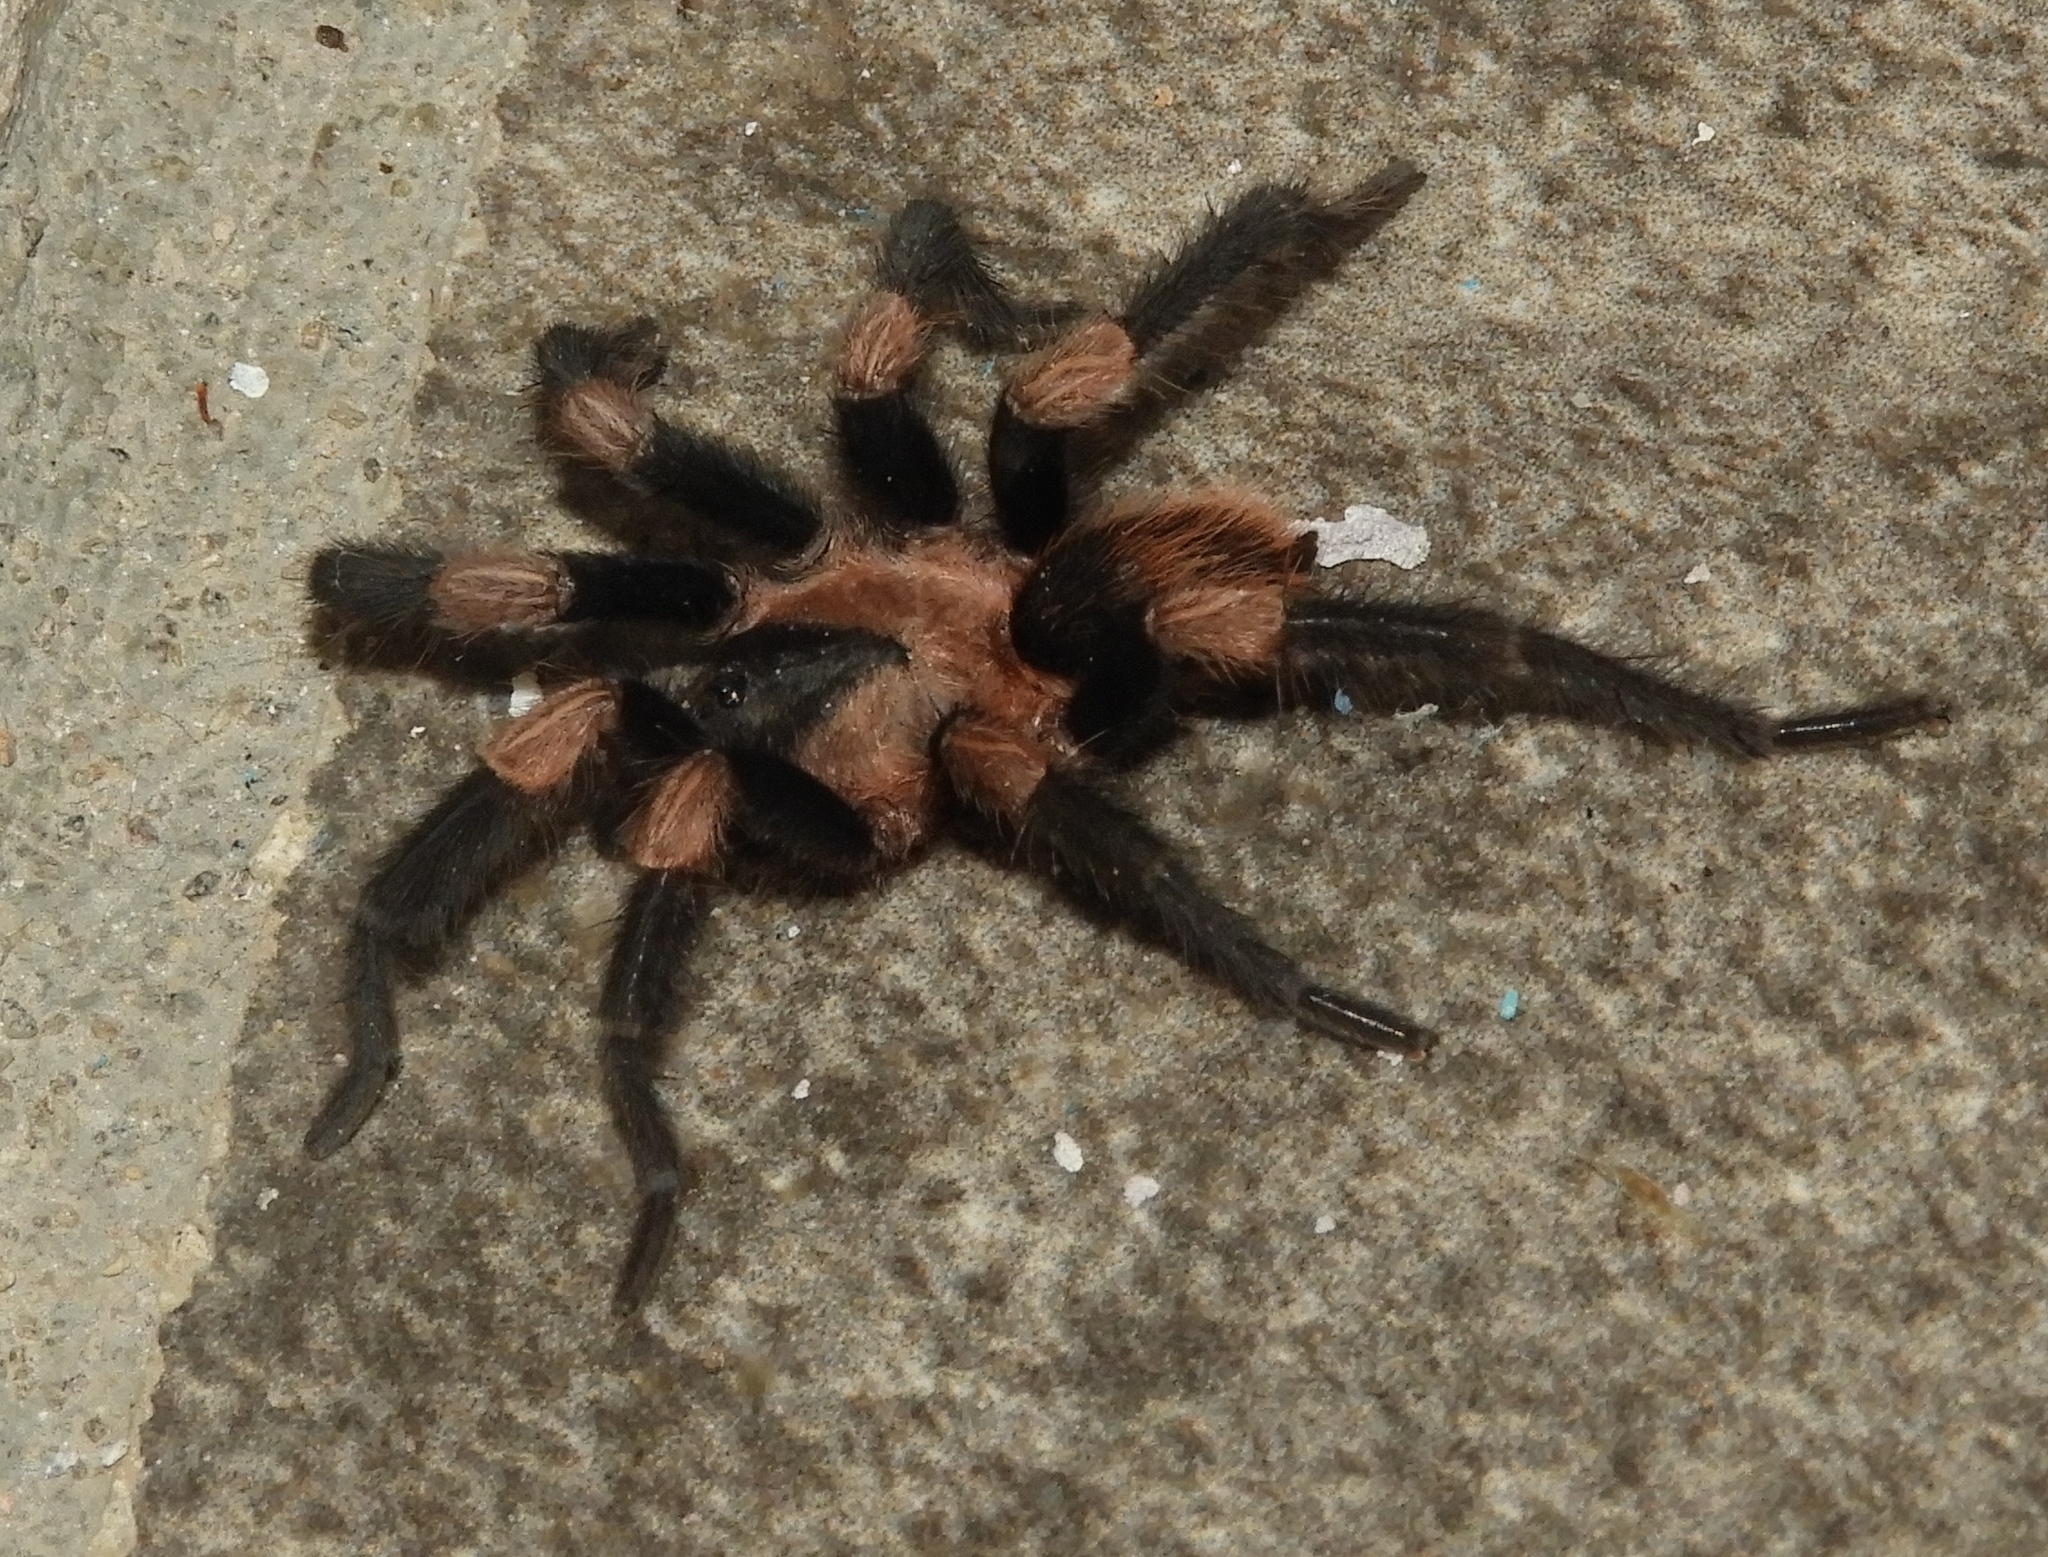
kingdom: Animalia
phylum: Arthropoda
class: Arachnida
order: Araneae
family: Theraphosidae
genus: Magnacarina
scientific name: Magnacarina
